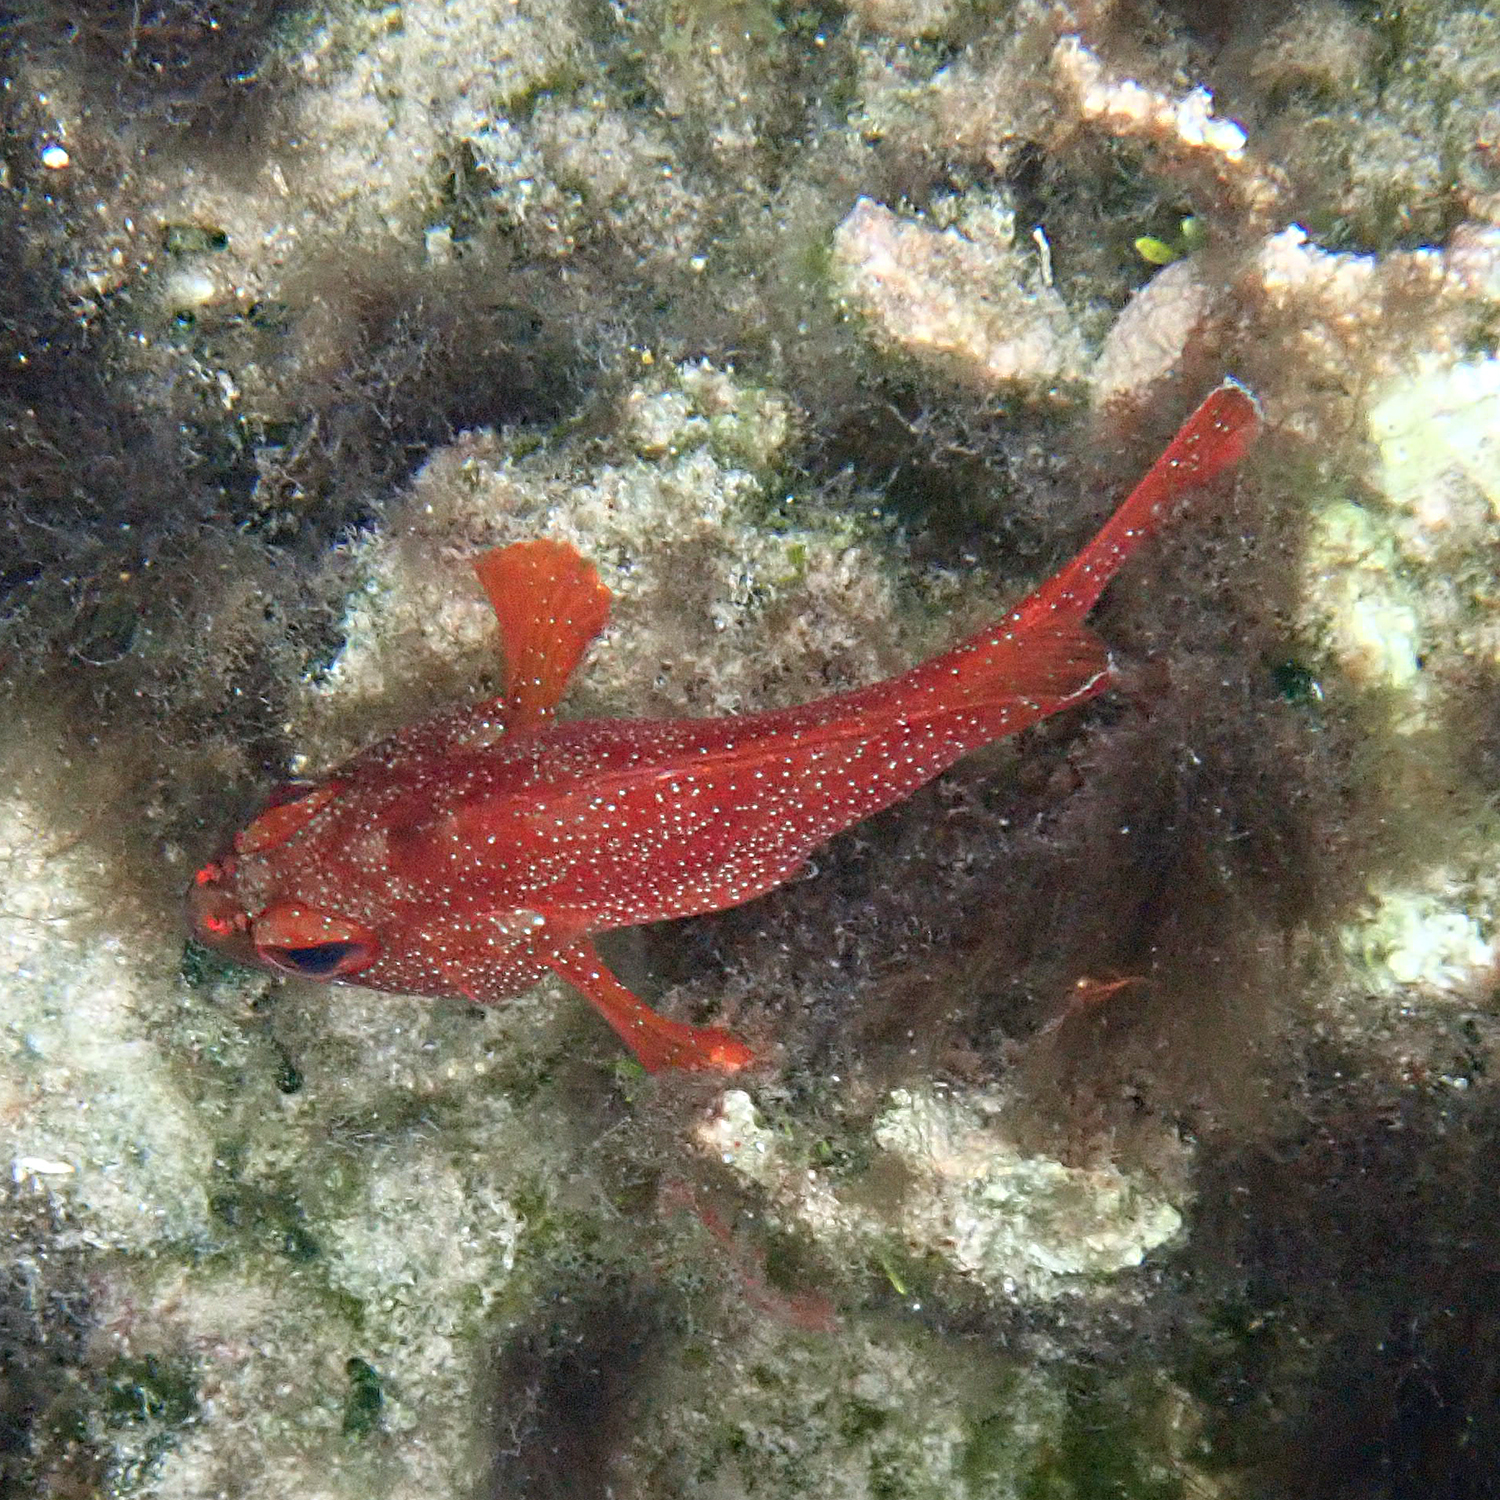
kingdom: Animalia
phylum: Chordata
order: Perciformes
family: Serranidae
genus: Trachypoma
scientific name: Trachypoma macracanthus
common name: Toadstool grouper
